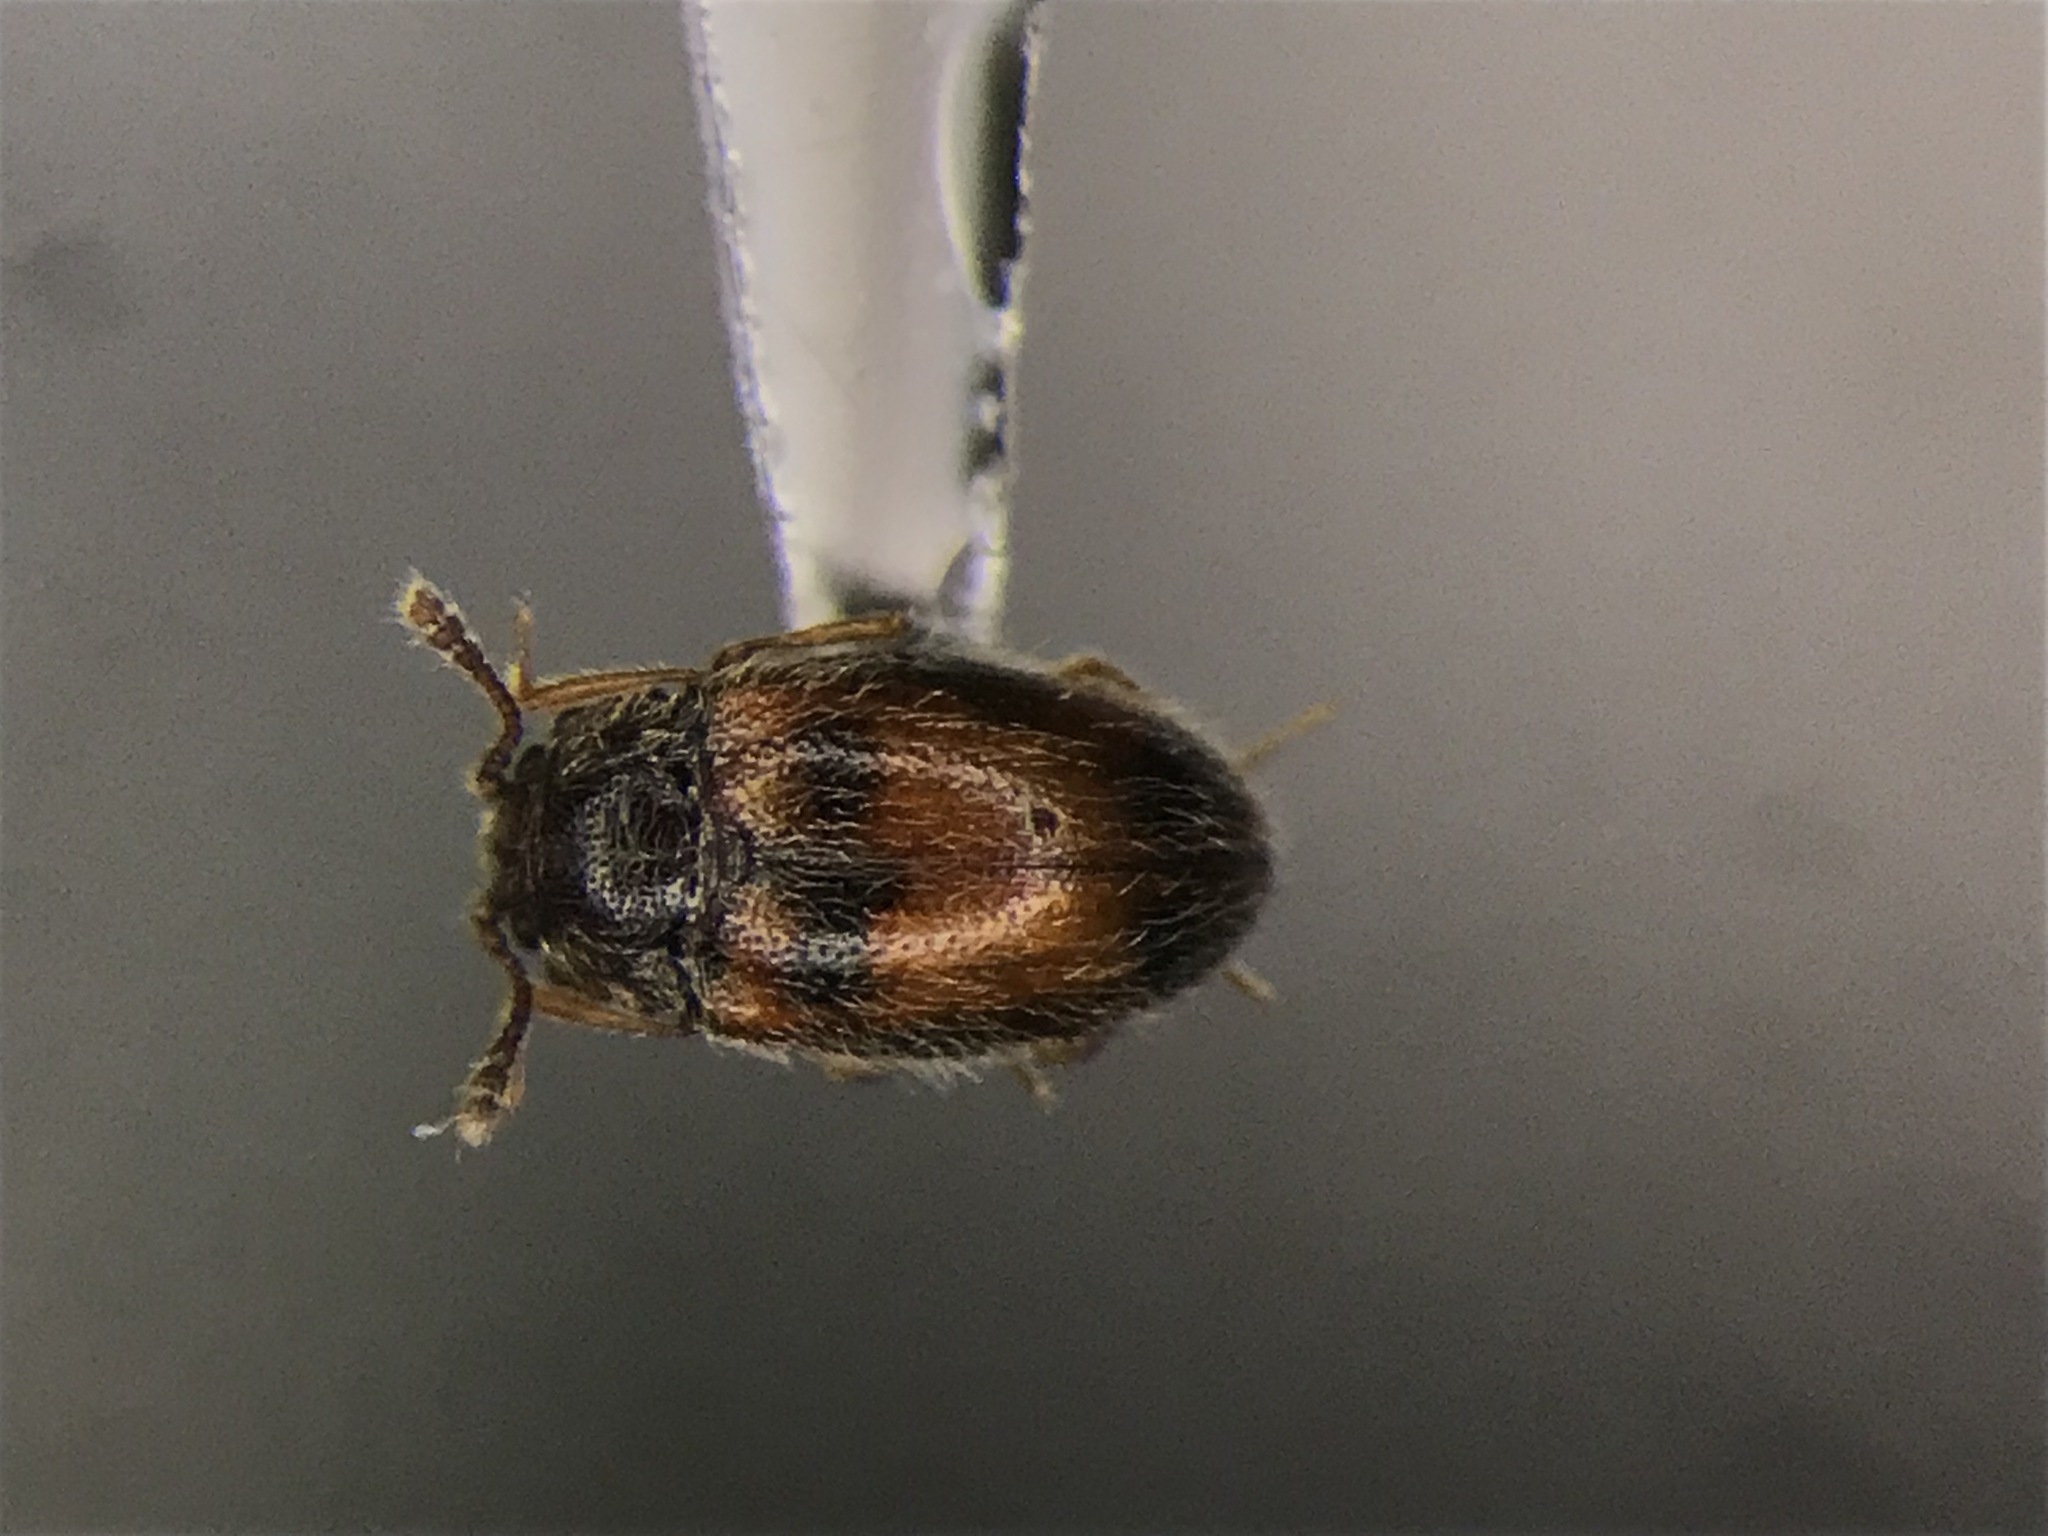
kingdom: Animalia
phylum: Arthropoda
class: Insecta
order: Coleoptera
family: Cryptophagidae
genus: Henotiderus
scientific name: Henotiderus centromaculatus
